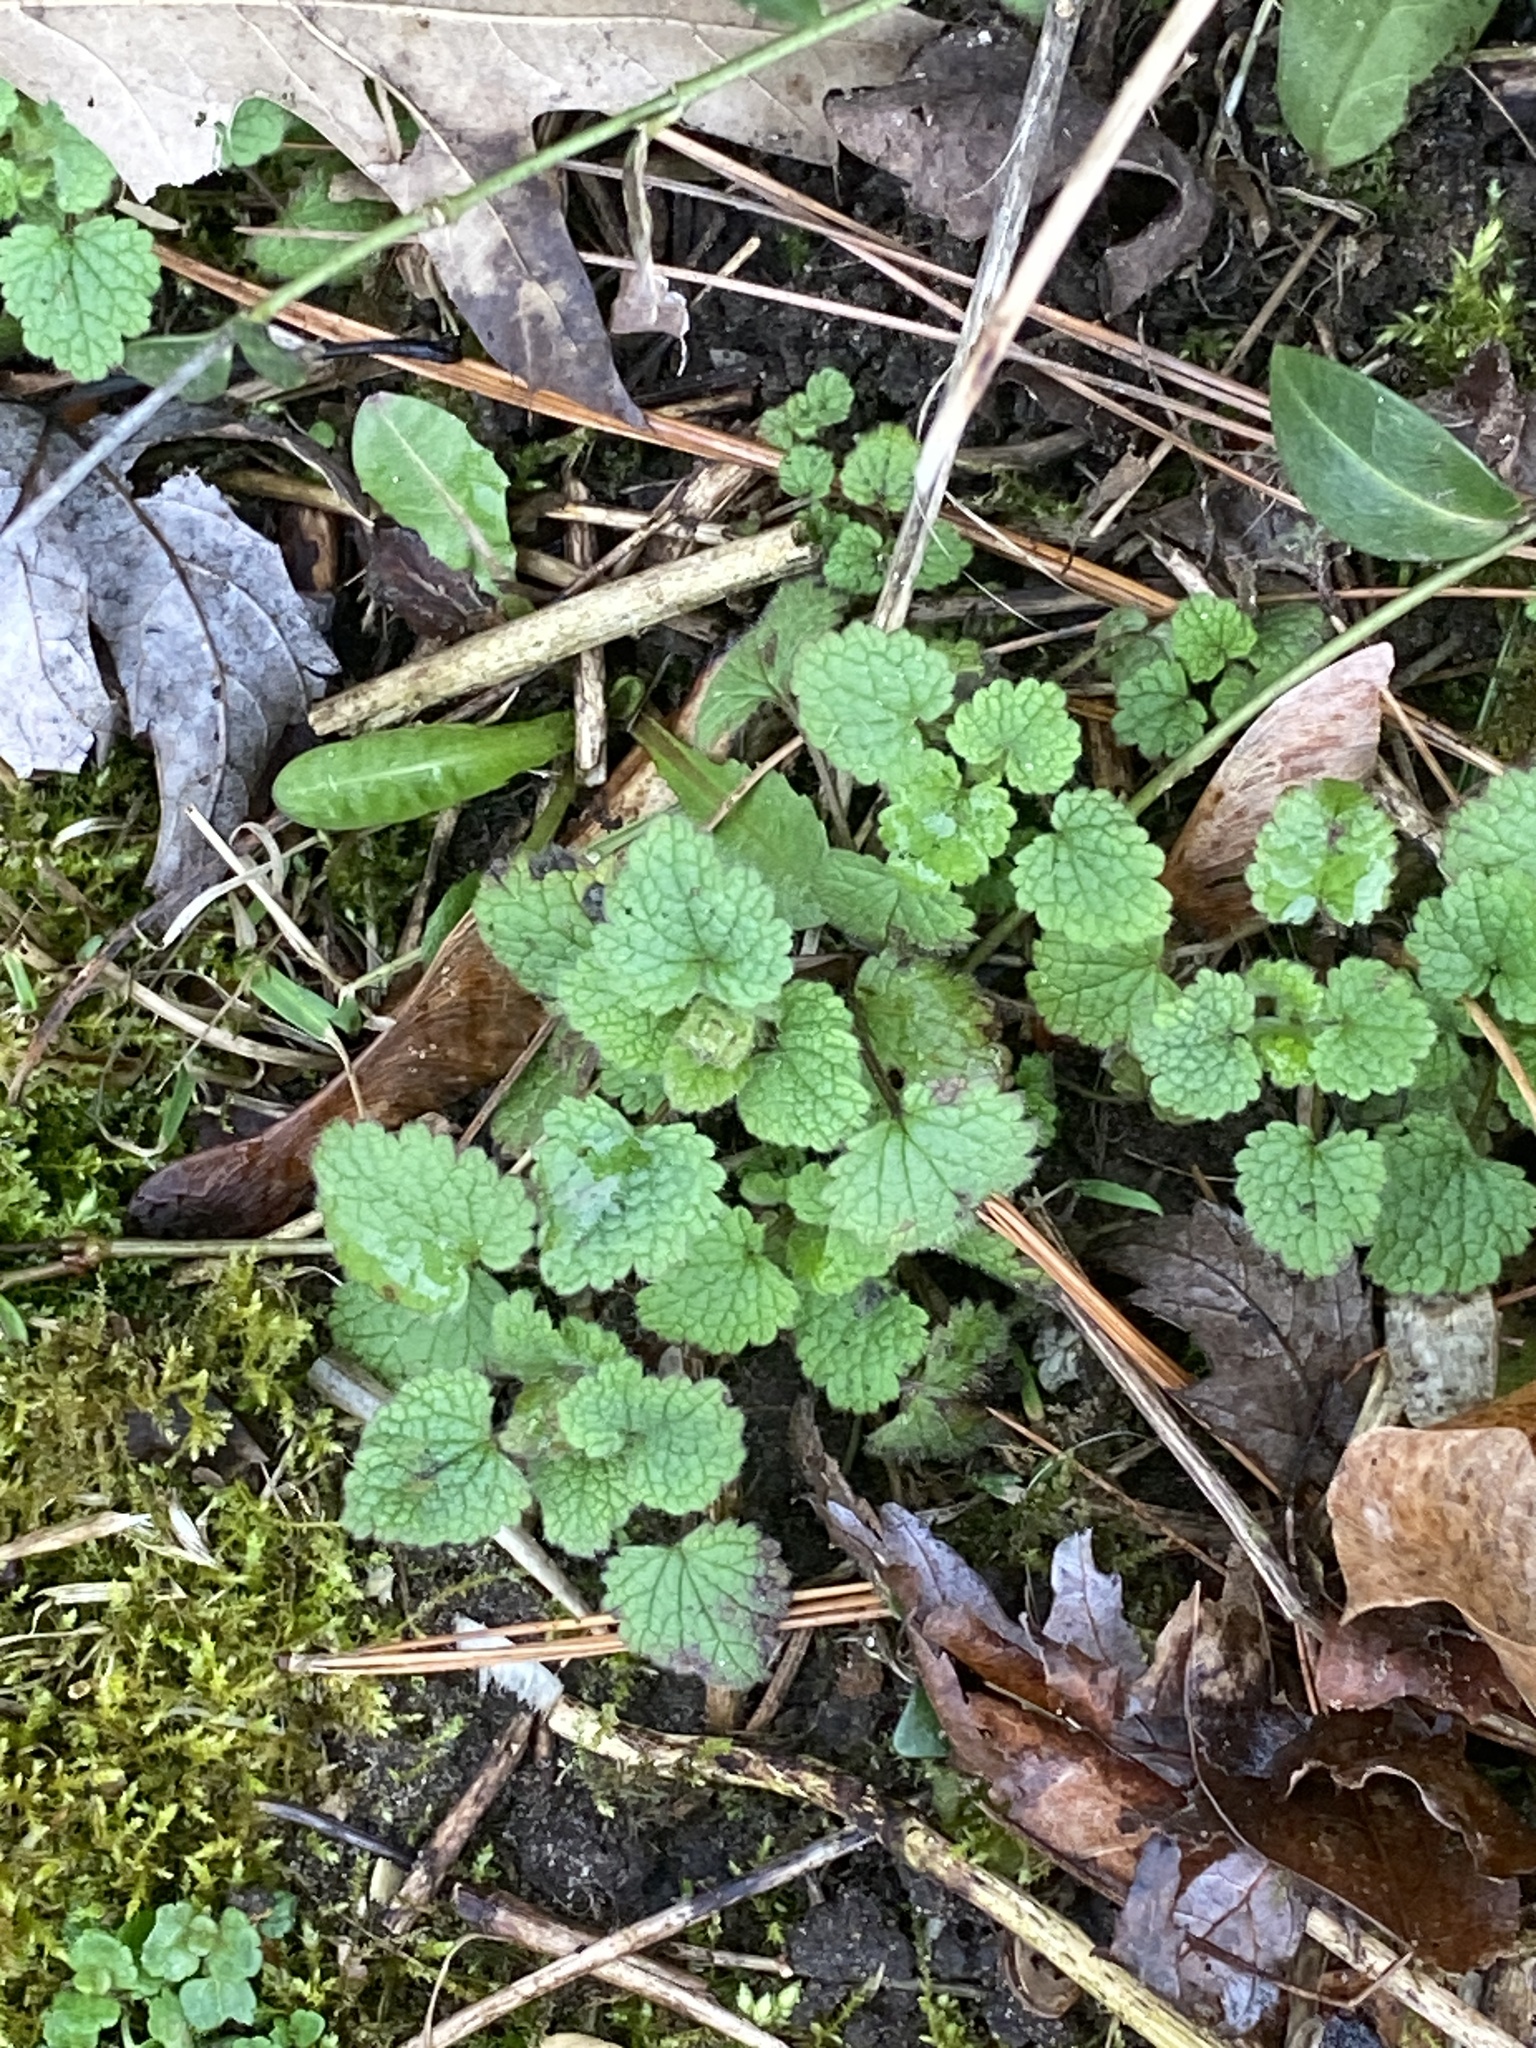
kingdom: Plantae
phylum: Tracheophyta
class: Magnoliopsida
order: Lamiales
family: Lamiaceae
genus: Lamium
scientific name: Lamium purpureum
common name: Red dead-nettle
